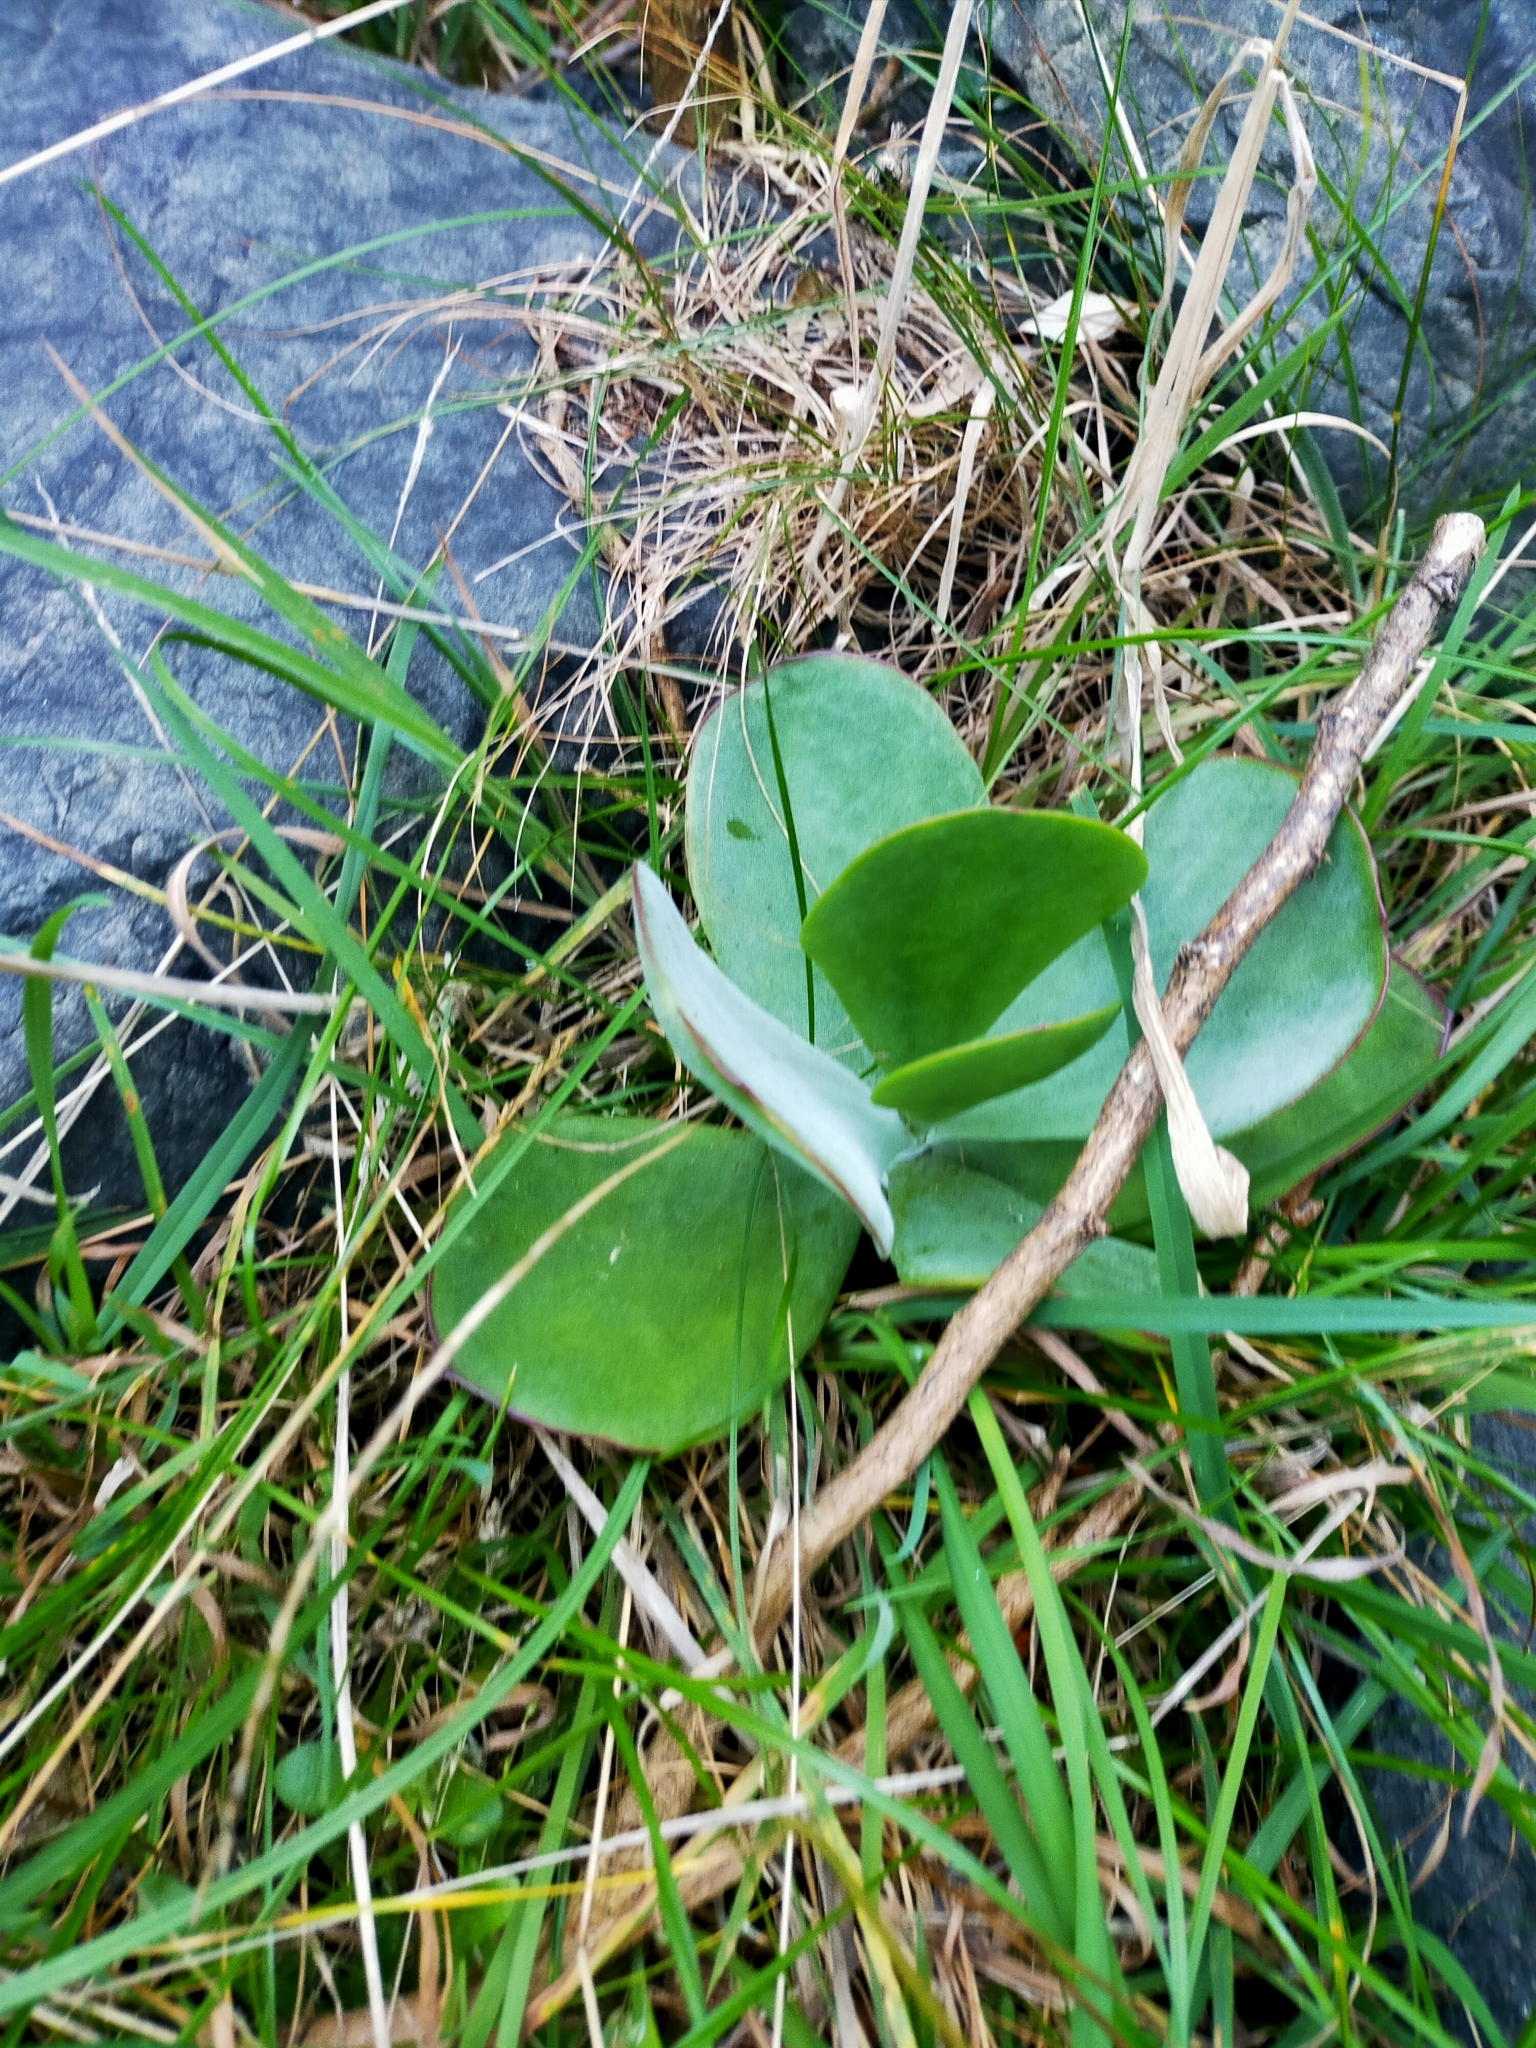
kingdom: Plantae
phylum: Tracheophyta
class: Magnoliopsida
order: Saxifragales
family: Crassulaceae
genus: Cotyledon
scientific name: Cotyledon orbiculata
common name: Pig's ear
